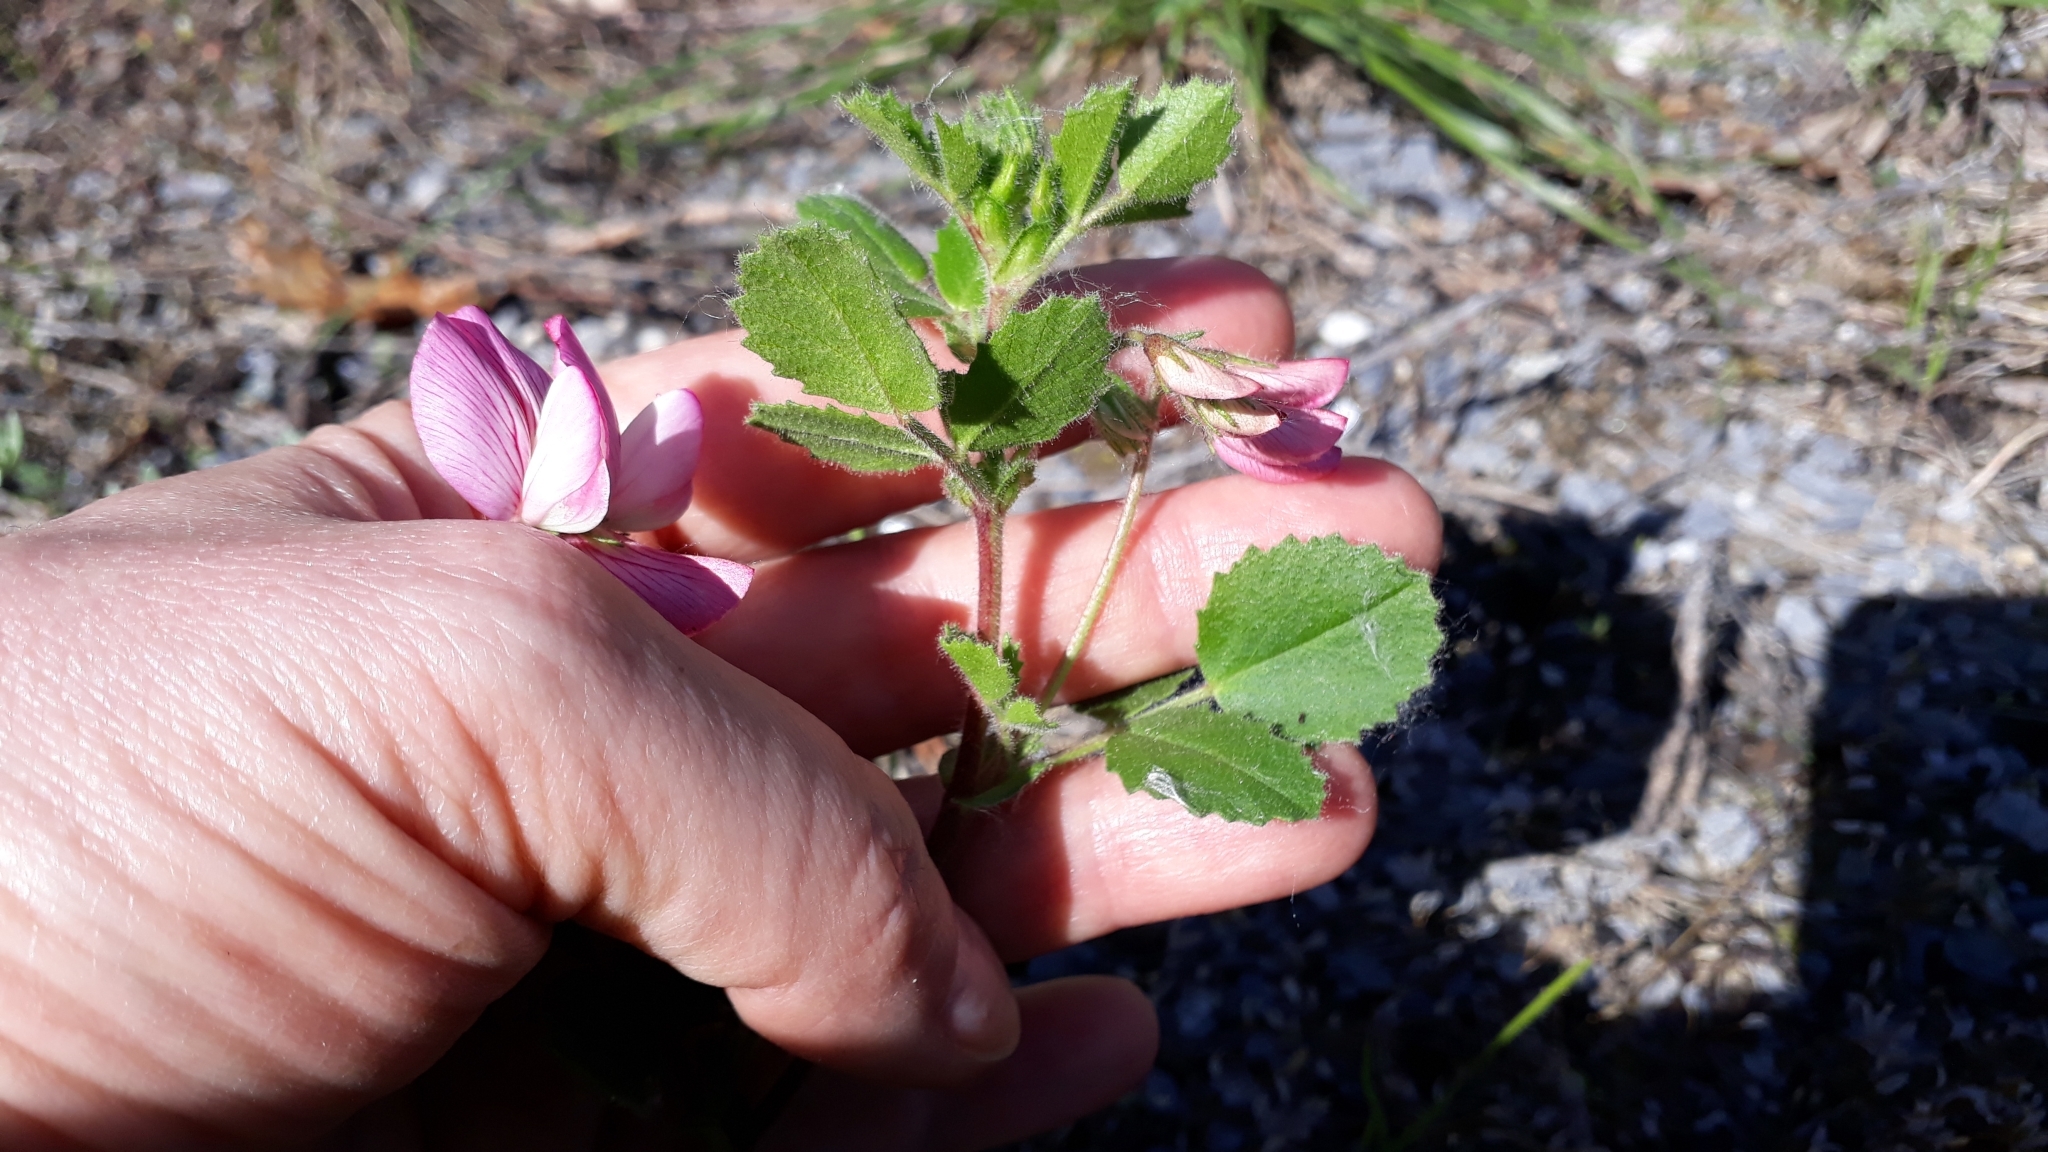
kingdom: Plantae
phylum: Tracheophyta
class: Magnoliopsida
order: Fabales
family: Fabaceae
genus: Ononis
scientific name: Ononis rotundifolia
